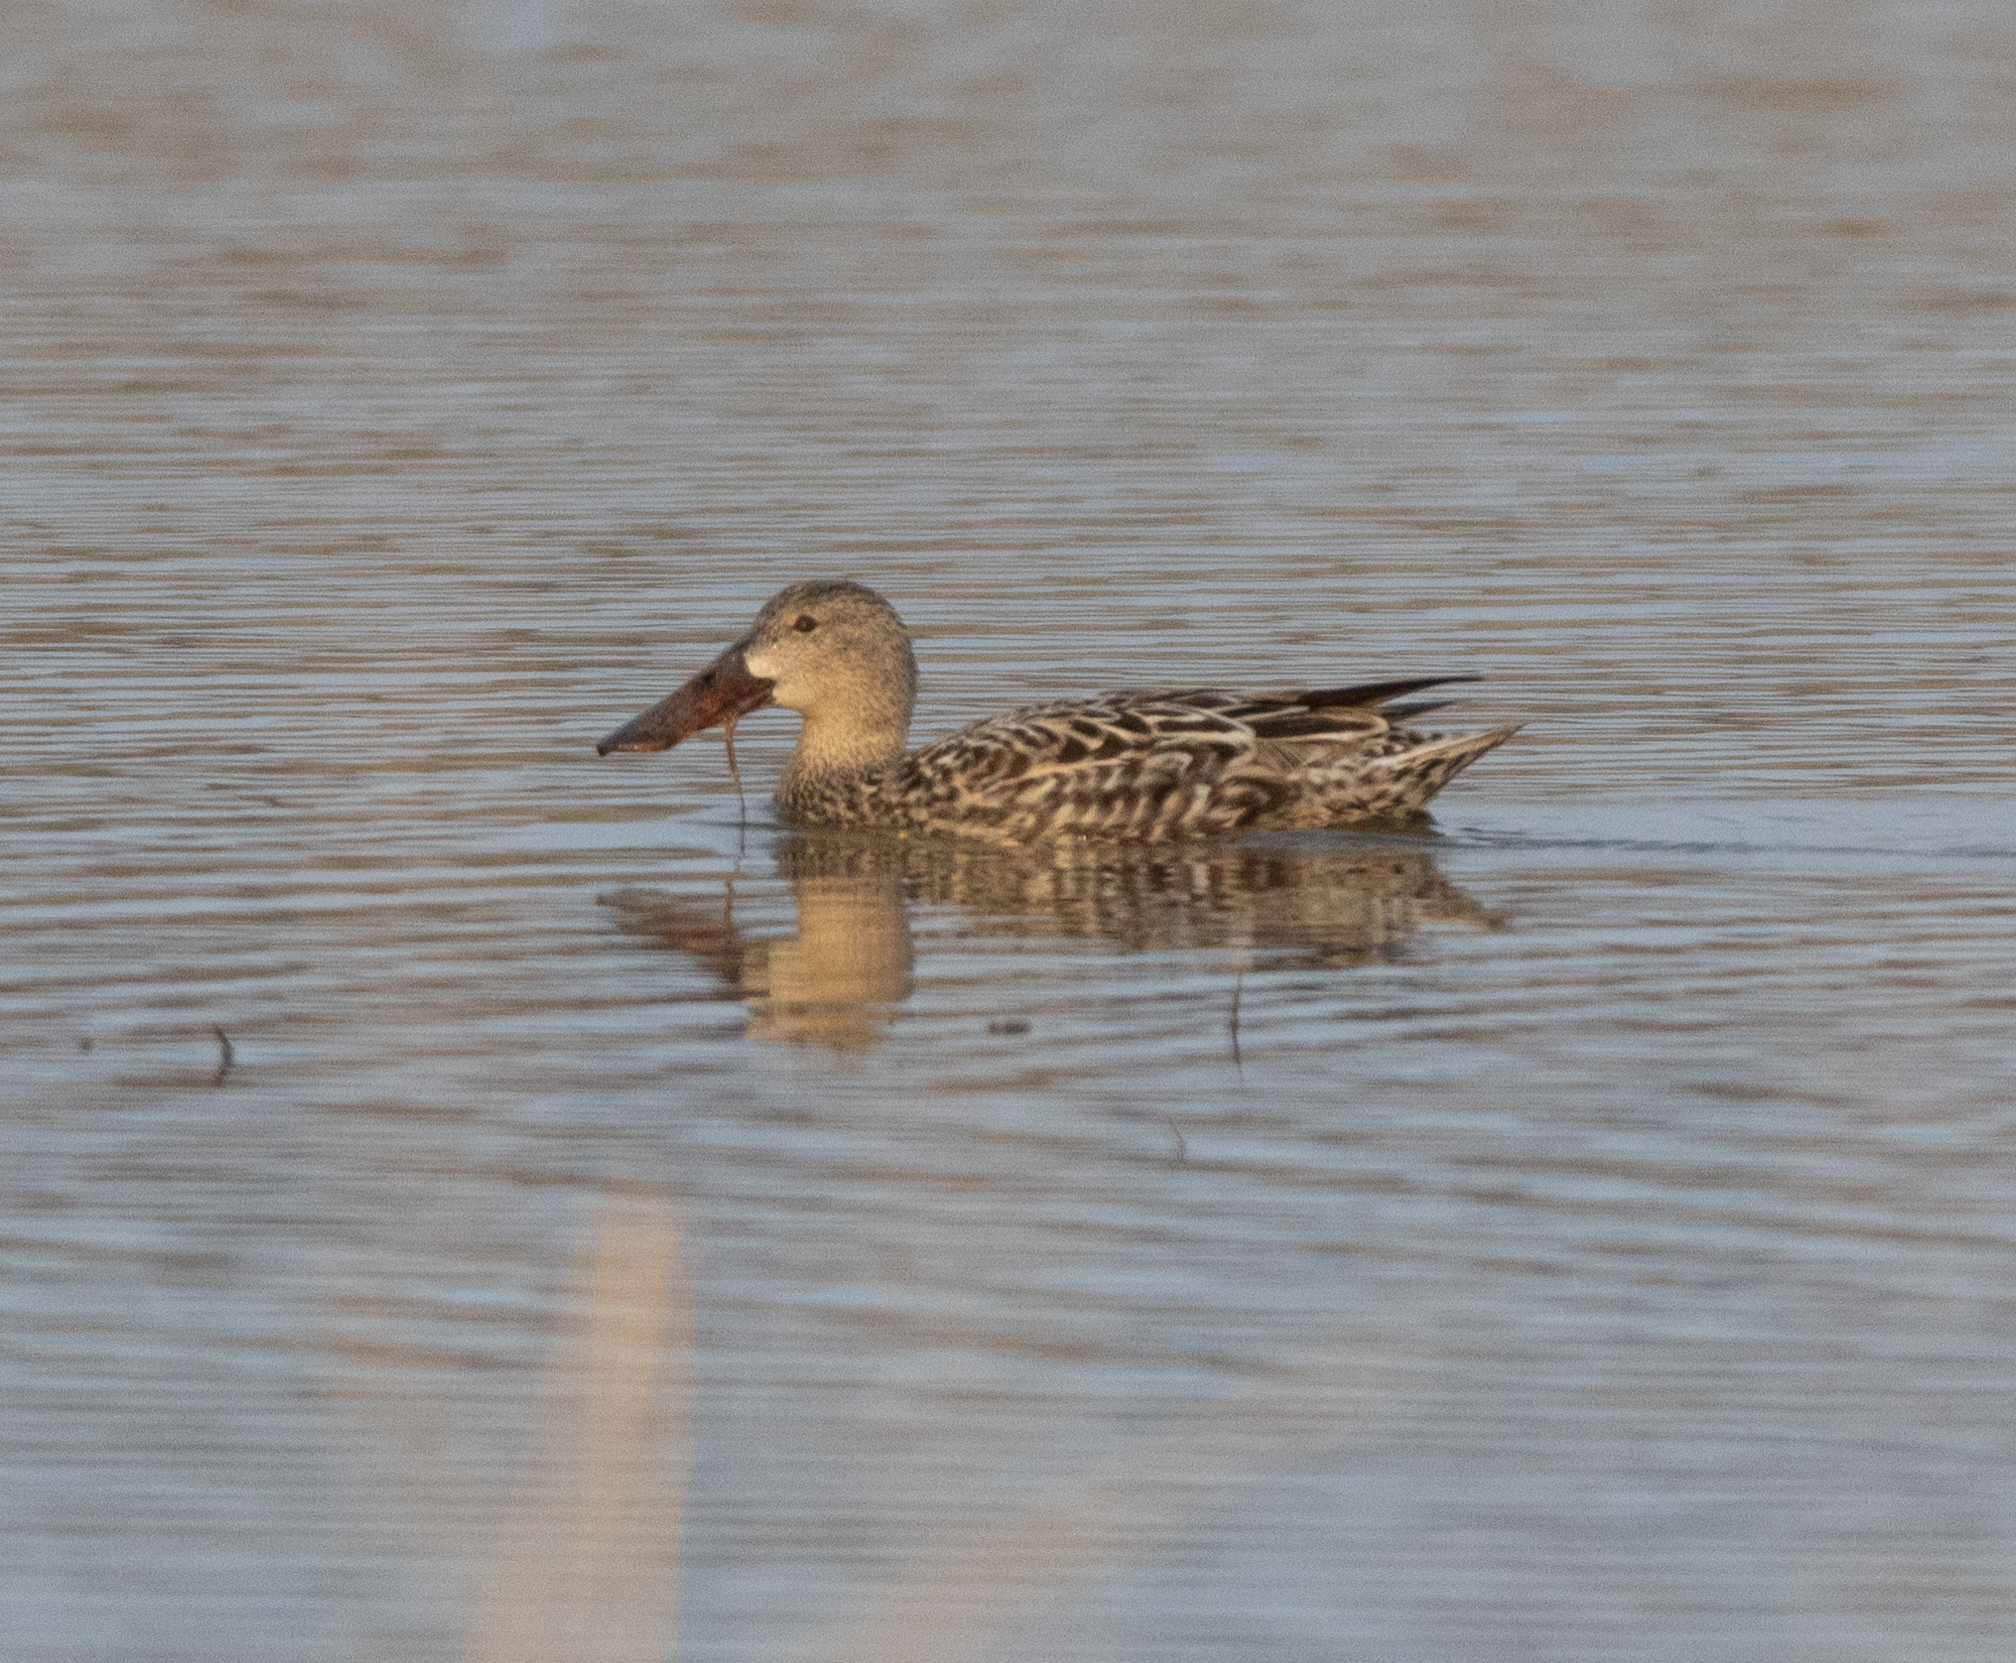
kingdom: Animalia
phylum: Chordata
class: Aves
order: Anseriformes
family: Anatidae
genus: Spatula
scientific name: Spatula clypeata
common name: Northern shoveler
